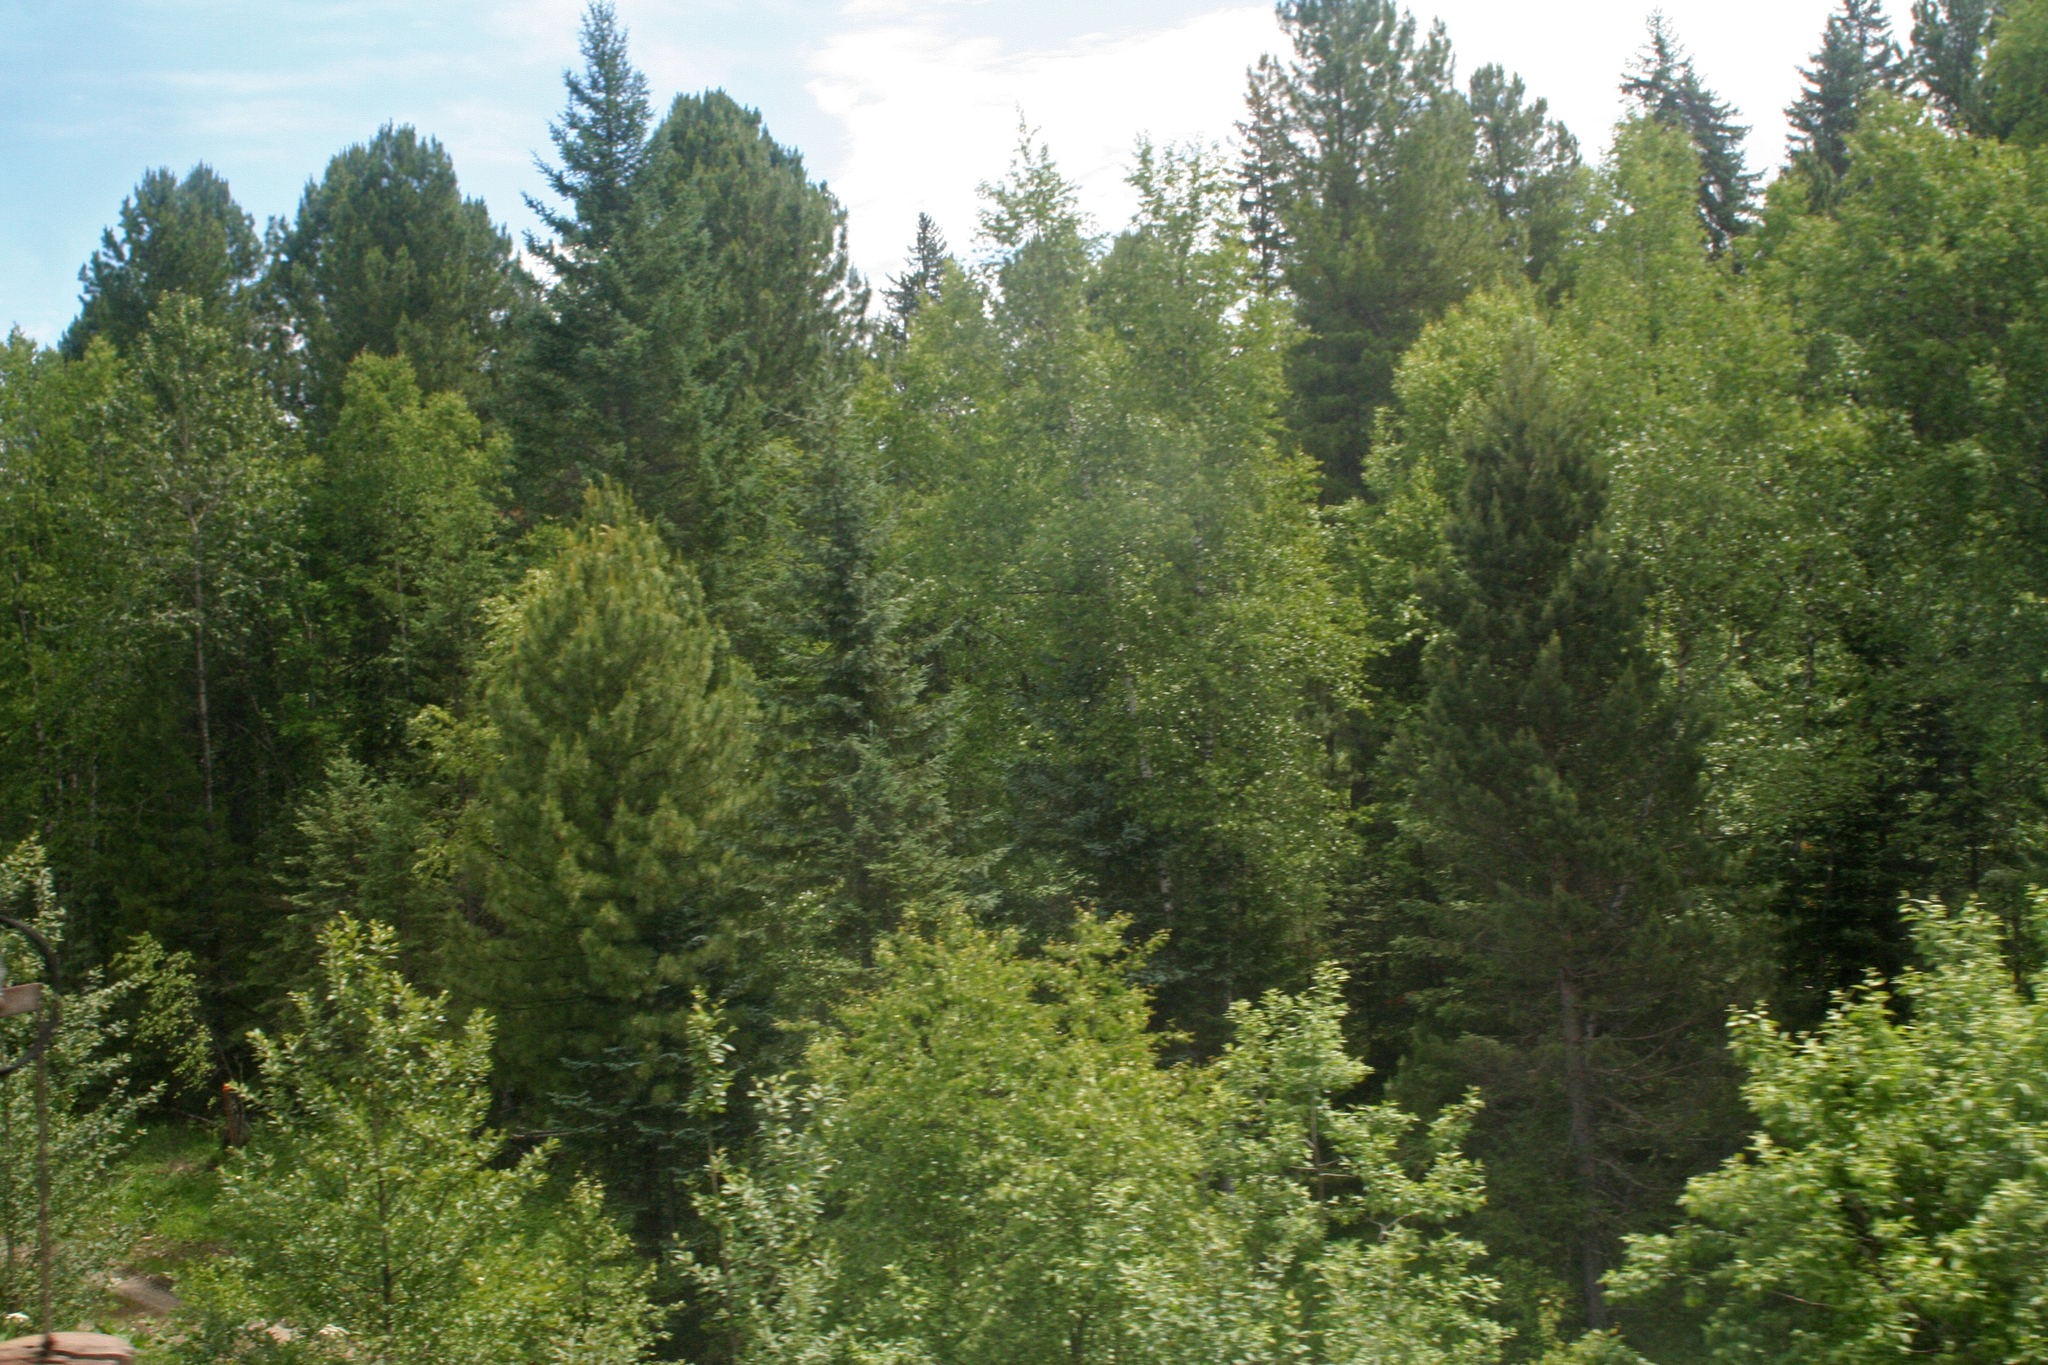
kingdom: Plantae
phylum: Tracheophyta
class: Pinopsida
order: Pinales
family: Pinaceae
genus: Pinus
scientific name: Pinus sibirica
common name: Siberian pine
